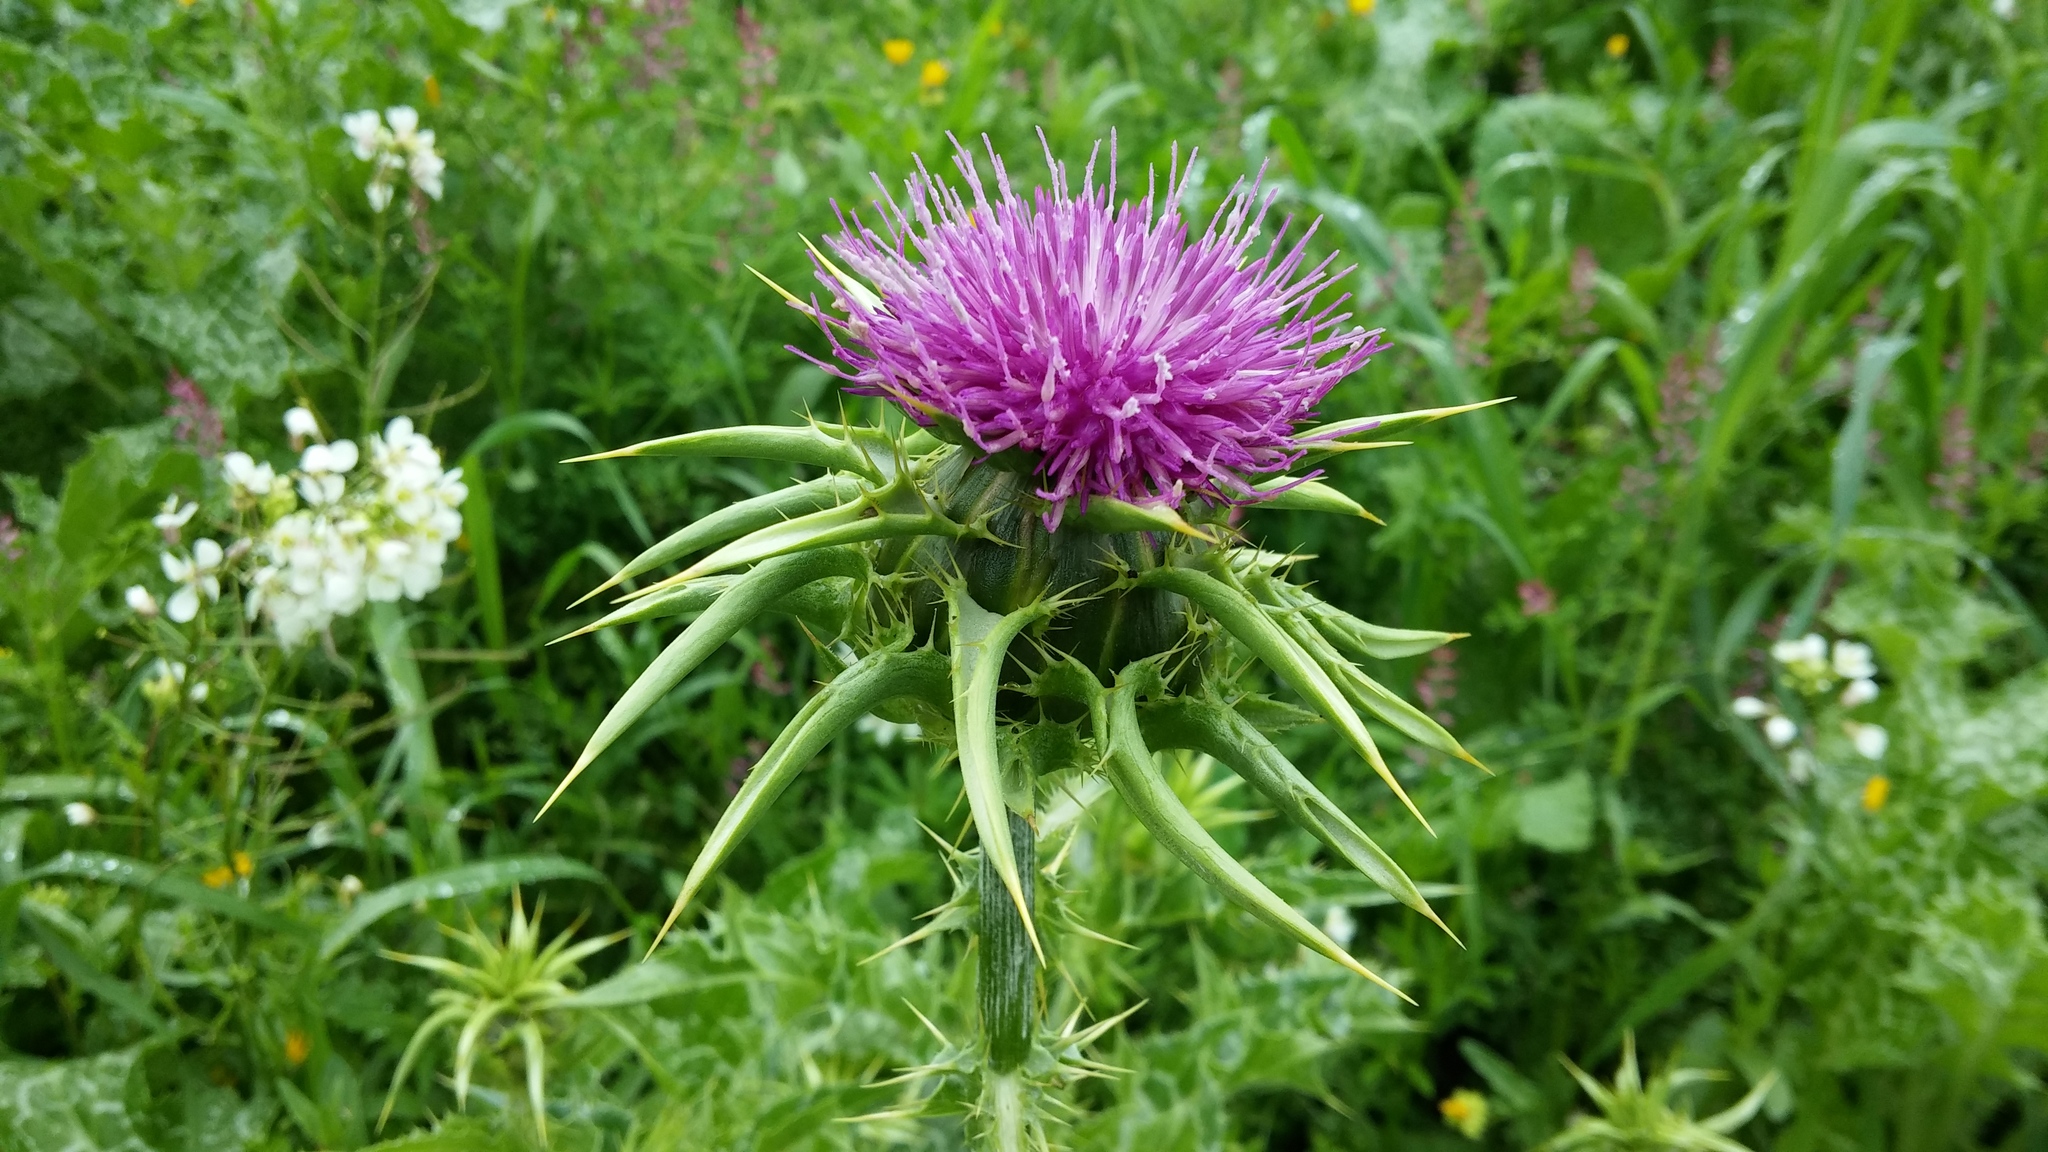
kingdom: Plantae
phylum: Tracheophyta
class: Magnoliopsida
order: Asterales
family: Asteraceae
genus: Silybum
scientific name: Silybum marianum
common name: Milk thistle
